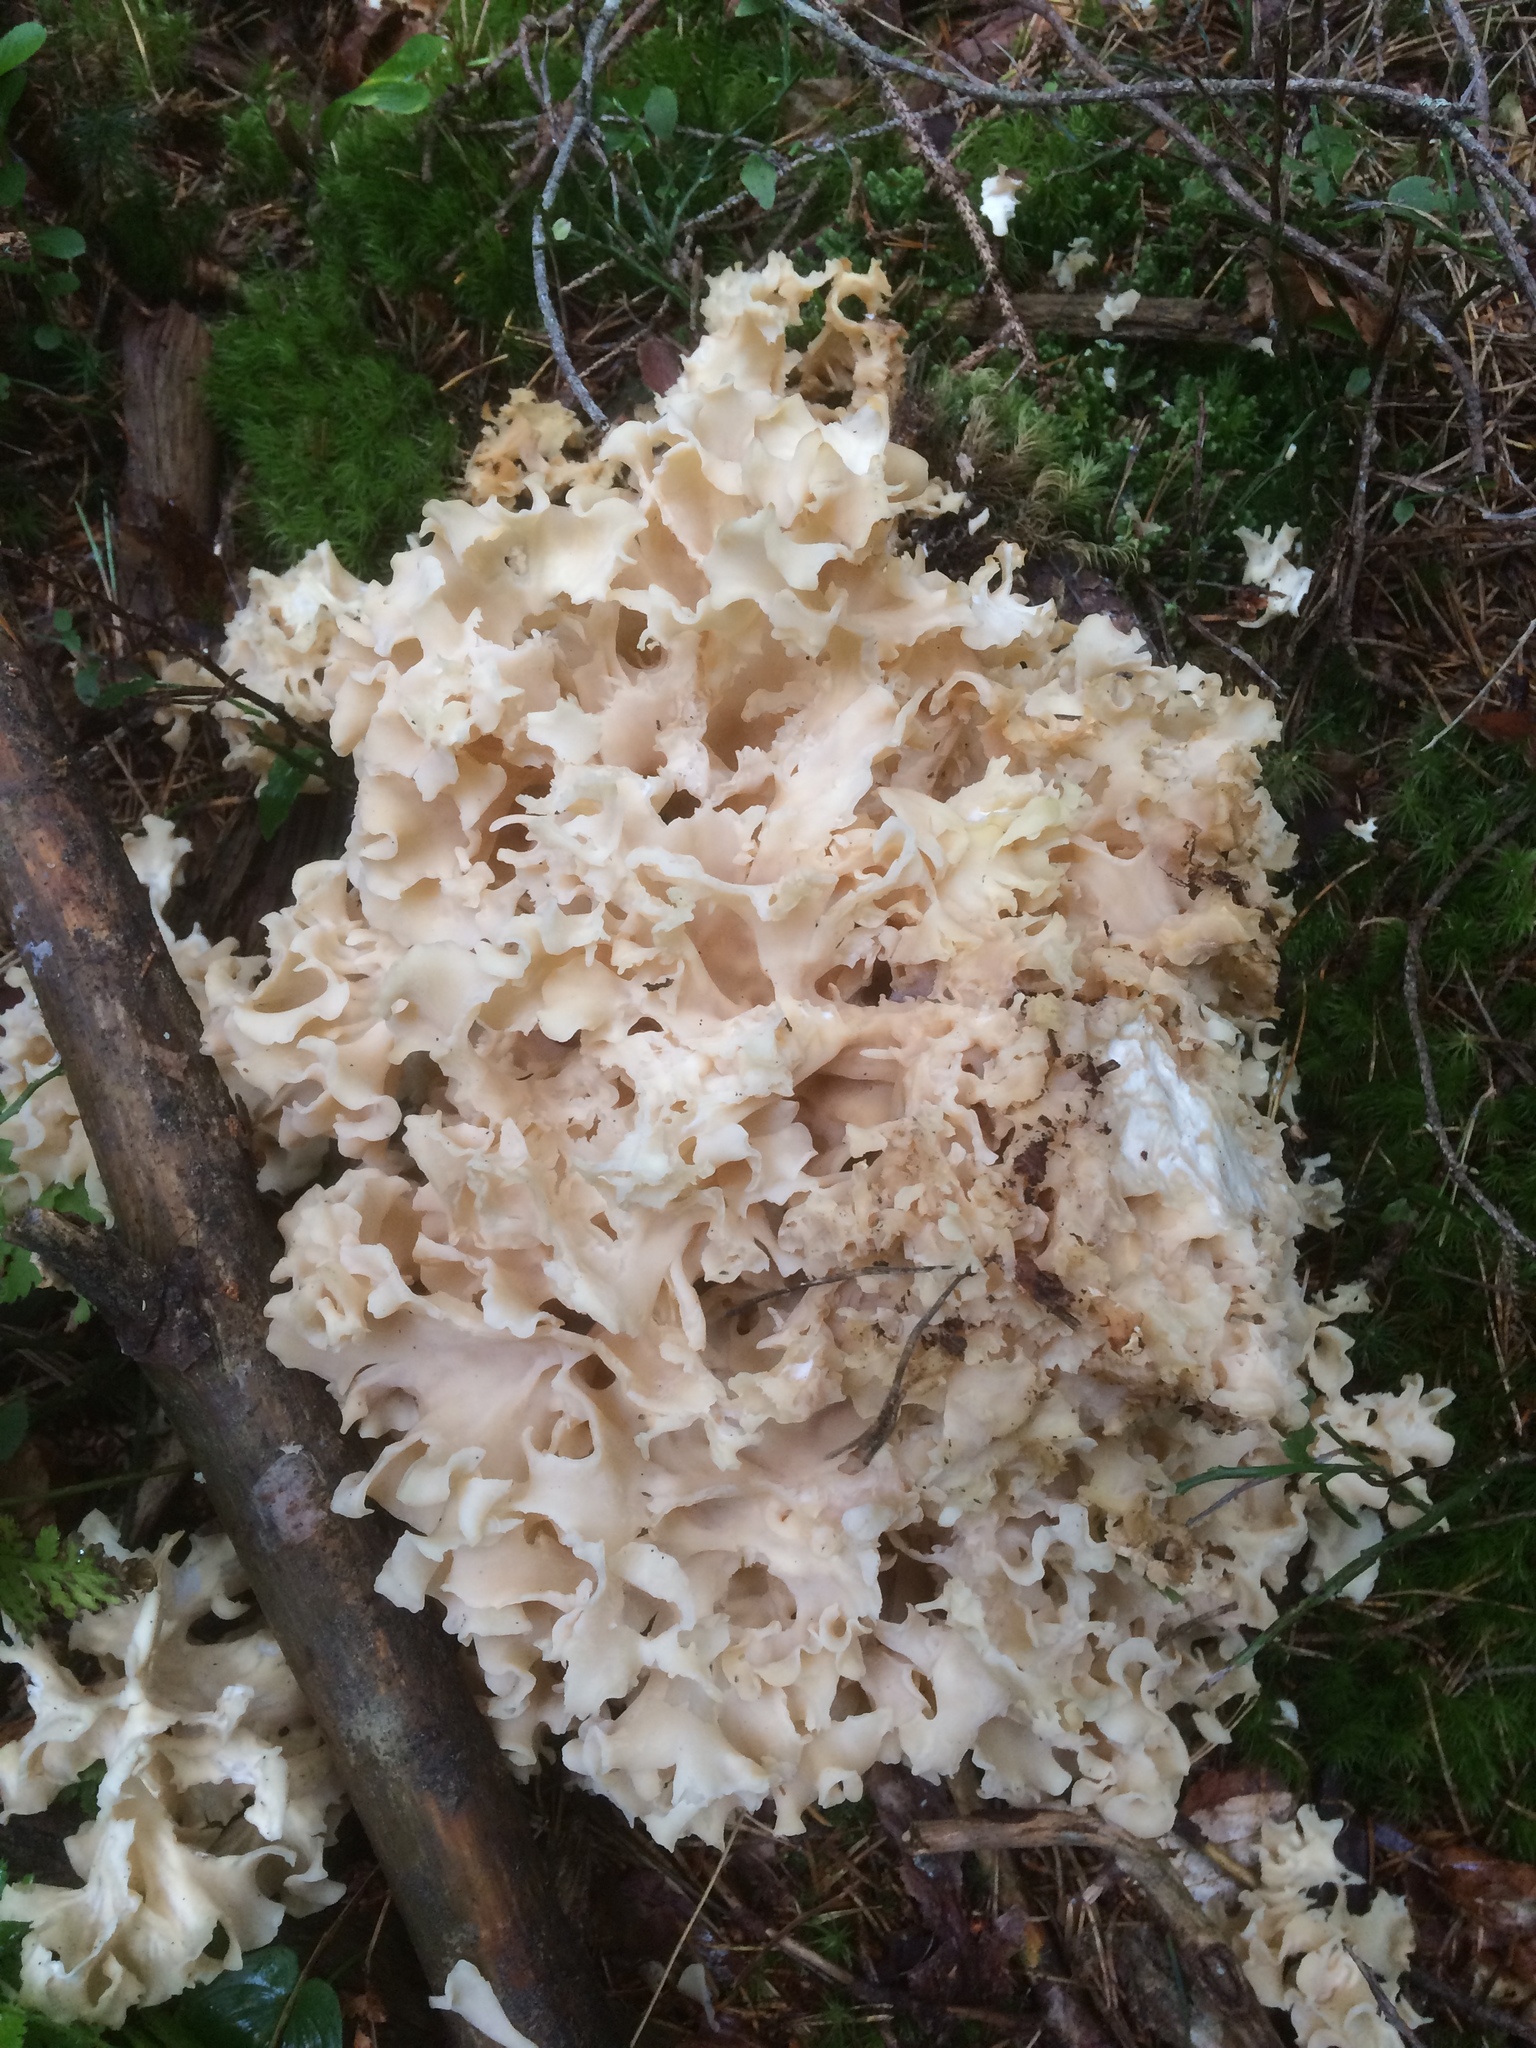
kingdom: Fungi
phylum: Basidiomycota
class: Agaricomycetes
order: Polyporales
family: Sparassidaceae
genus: Sparassis
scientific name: Sparassis crispa
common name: Brain fungus
